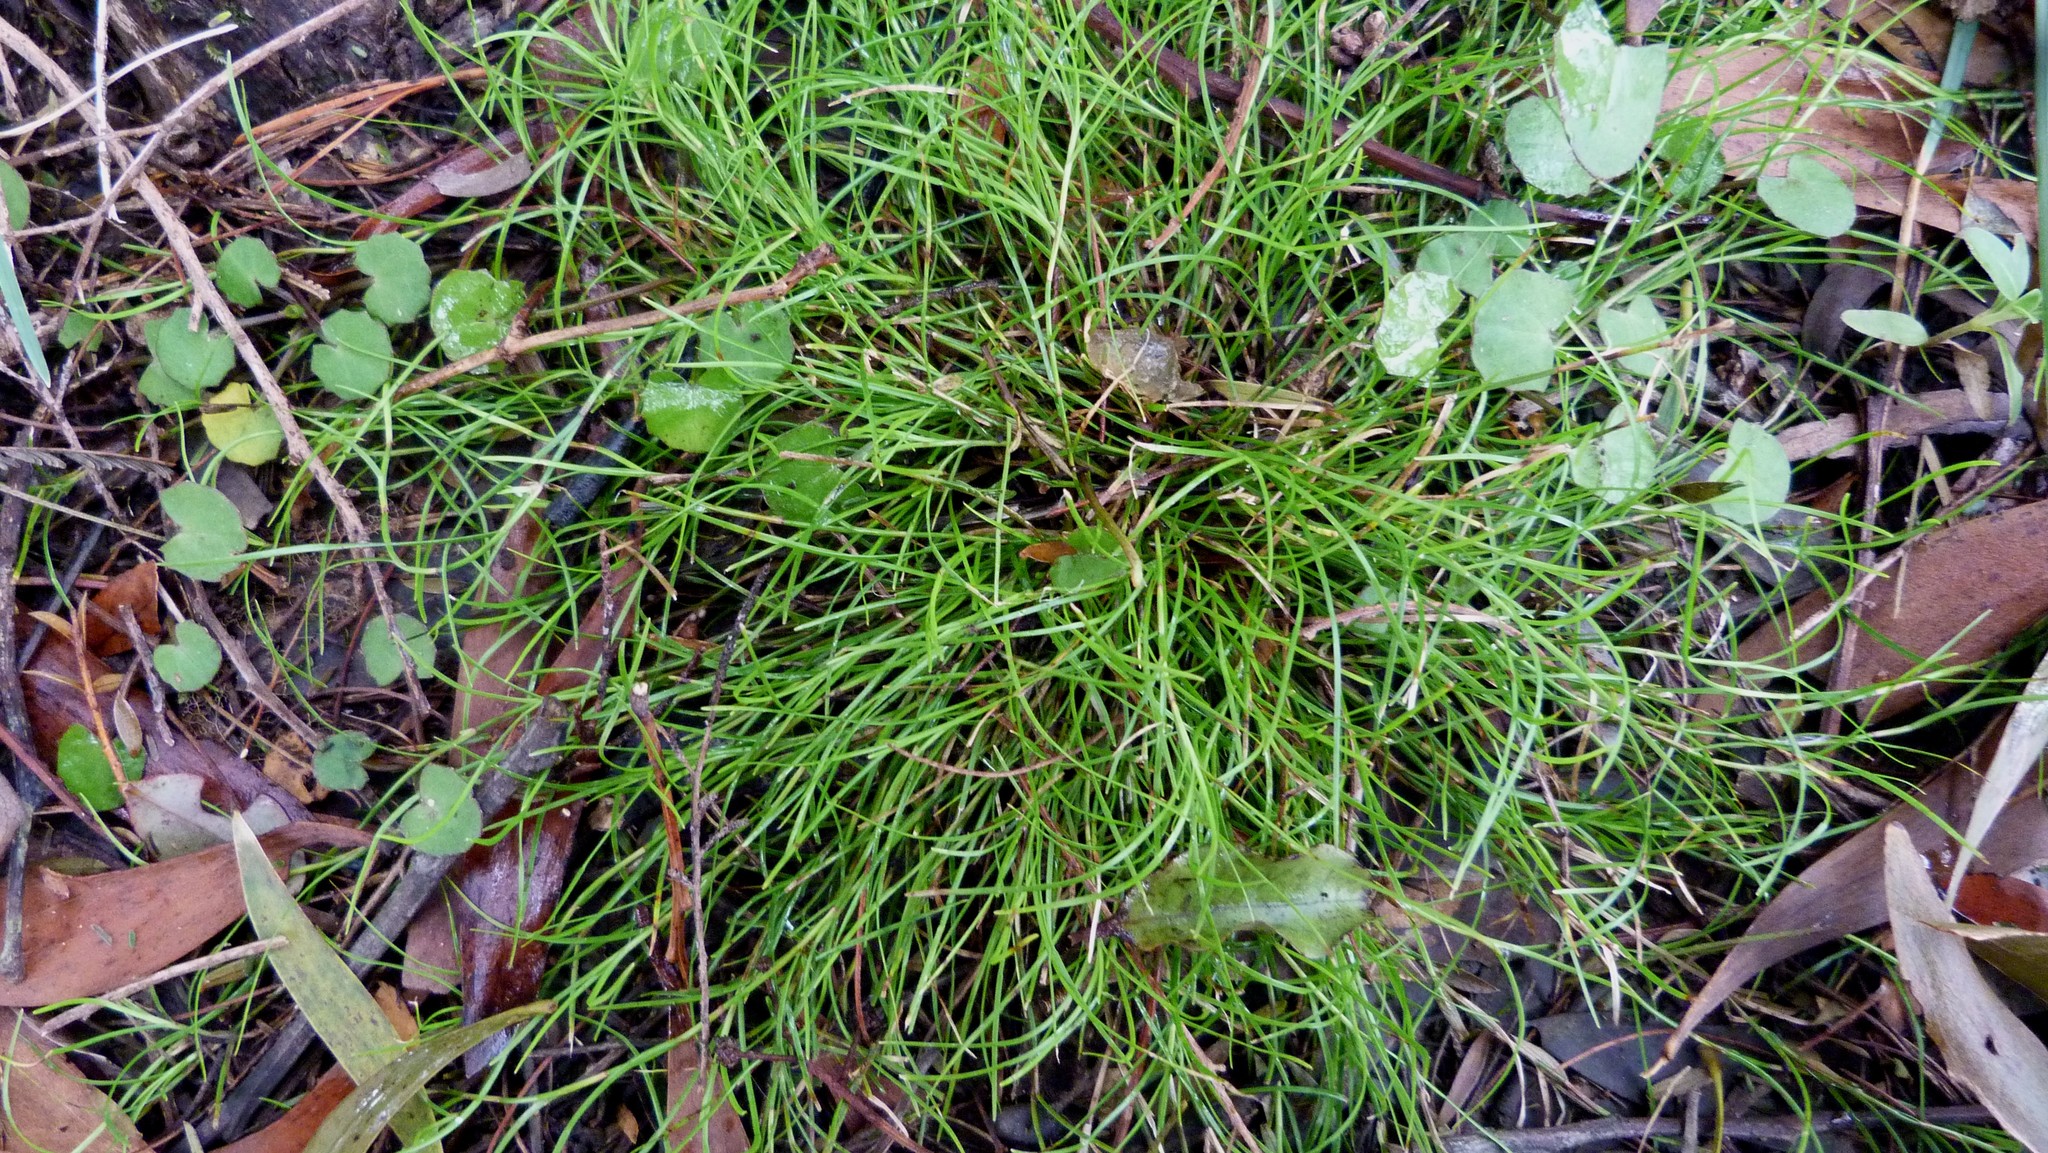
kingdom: Plantae
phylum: Tracheophyta
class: Liliopsida
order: Poales
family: Cyperaceae
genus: Schoenus
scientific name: Schoenus maschalinus
